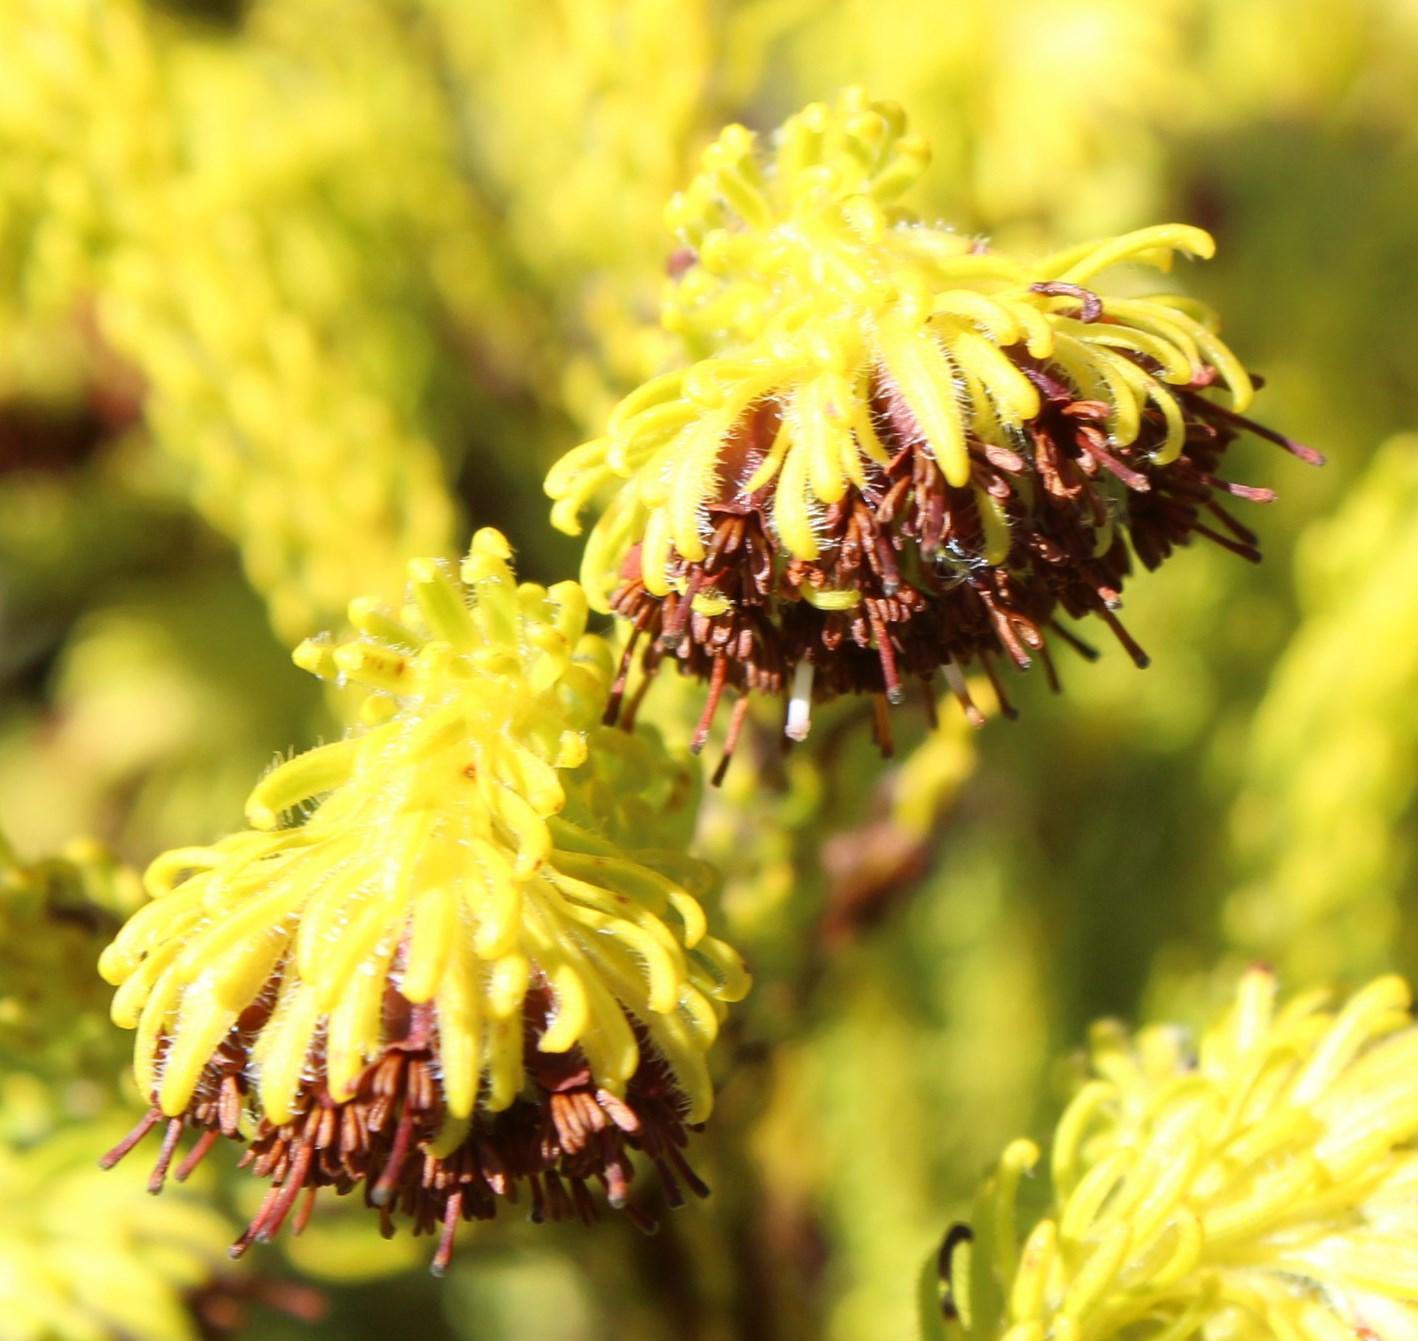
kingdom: Plantae
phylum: Tracheophyta
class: Magnoliopsida
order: Ericales
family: Ericaceae
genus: Erica
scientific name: Erica bruniifolia
